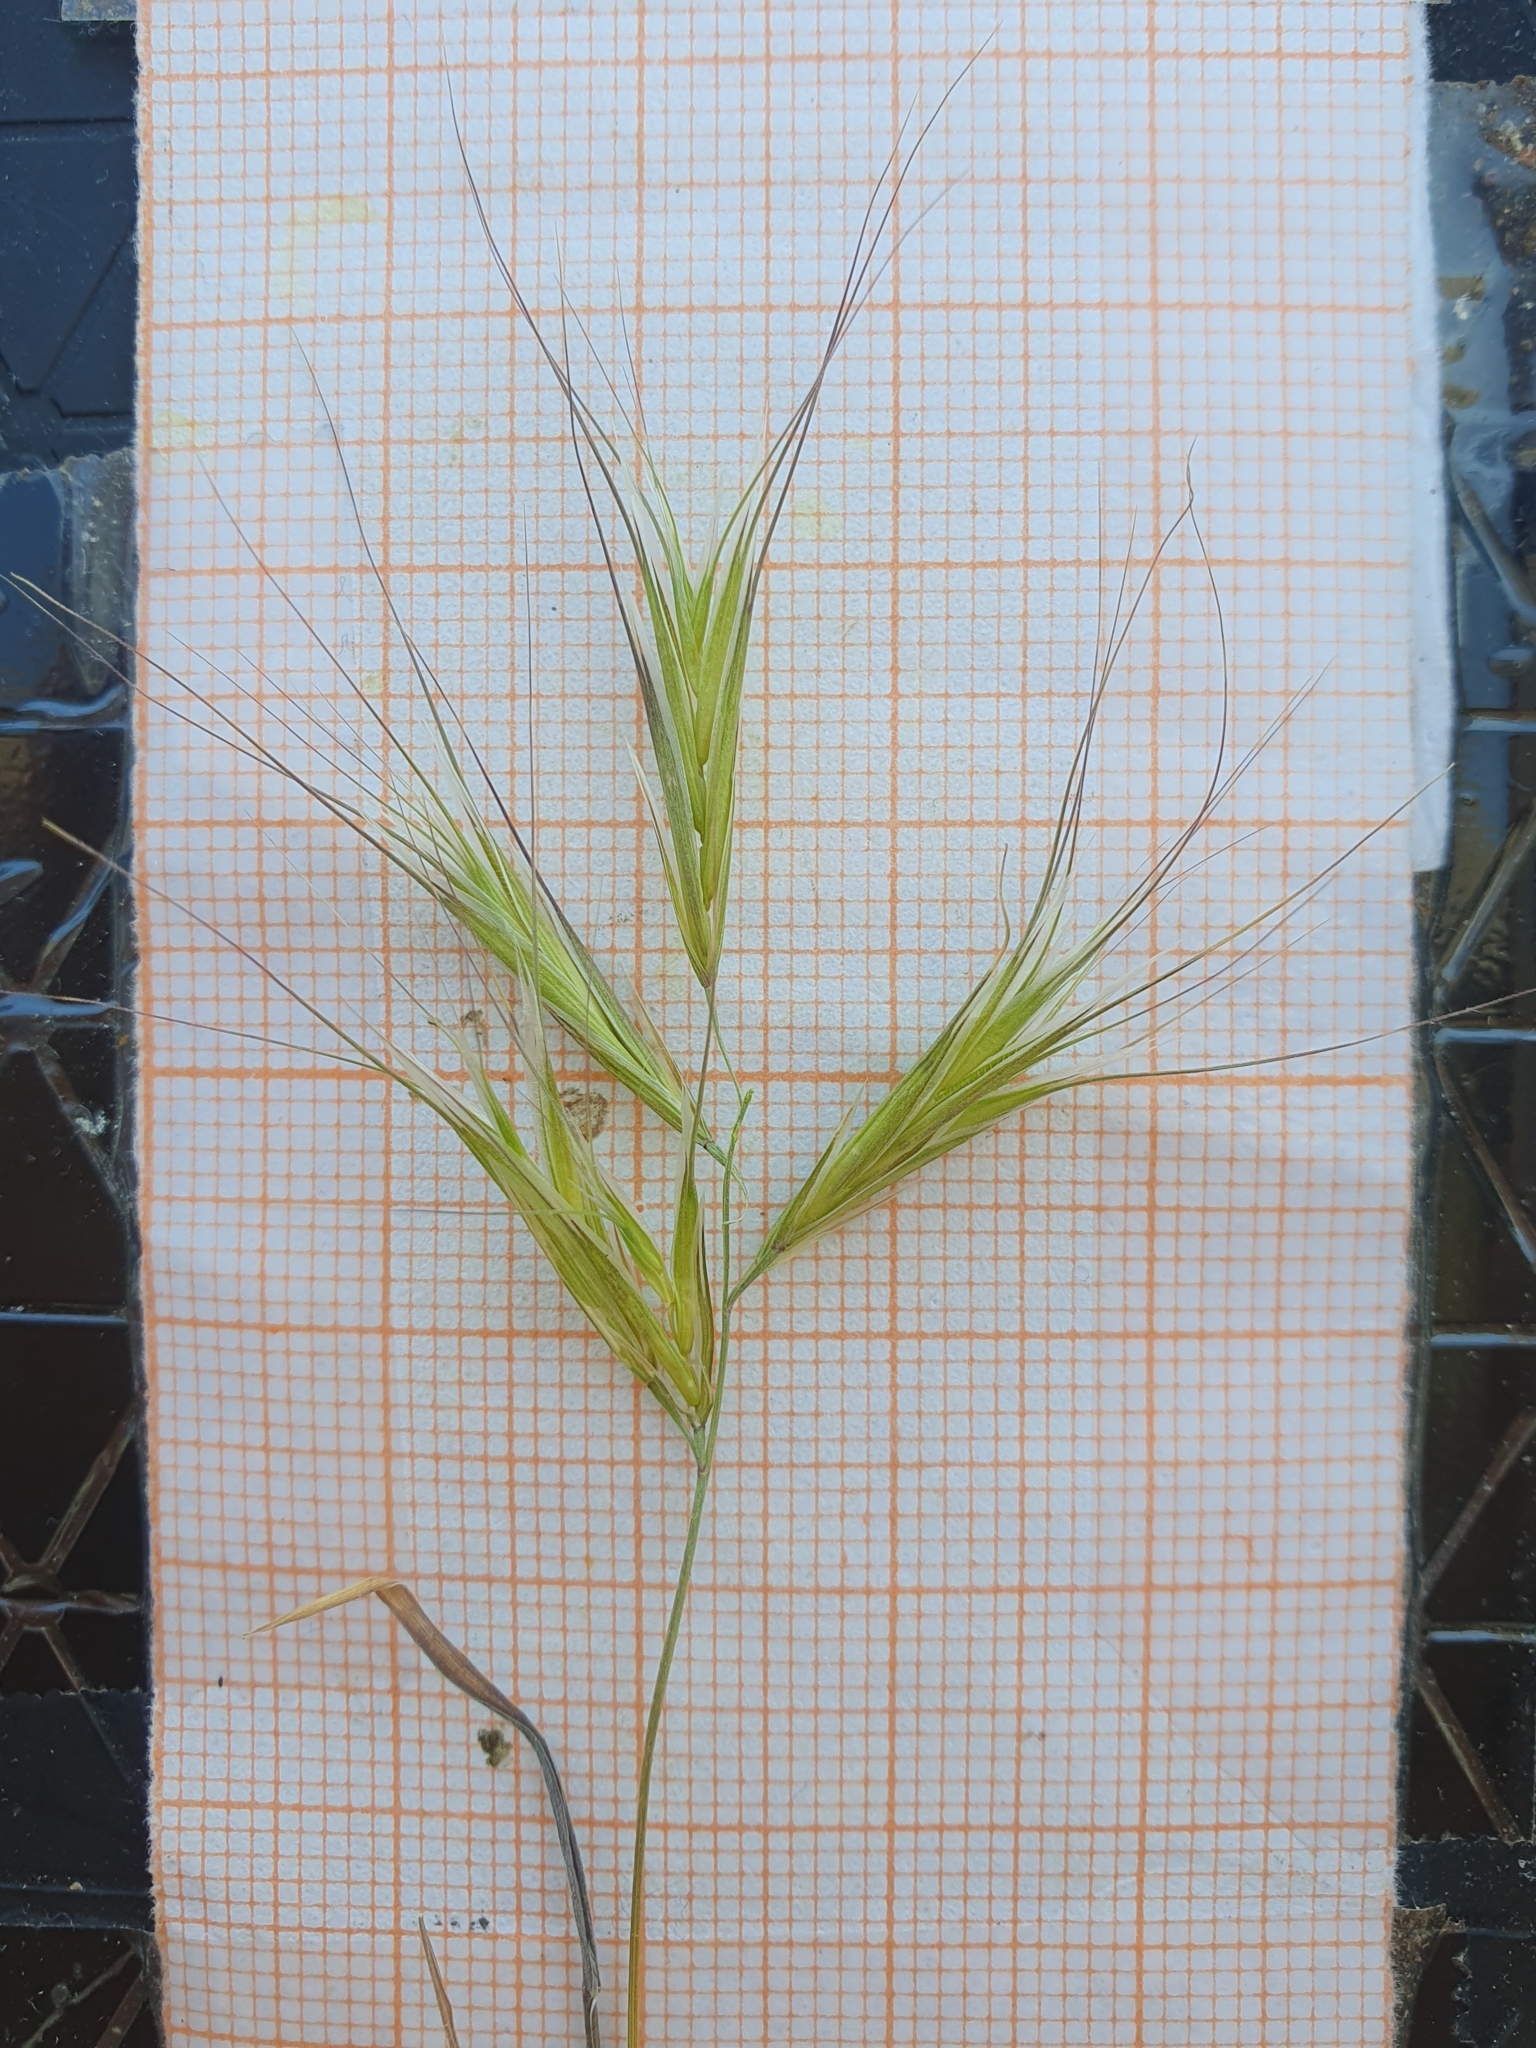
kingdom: Plantae
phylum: Tracheophyta
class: Liliopsida
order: Poales
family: Poaceae
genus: Bromus
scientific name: Bromus rubens
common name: Red brome
